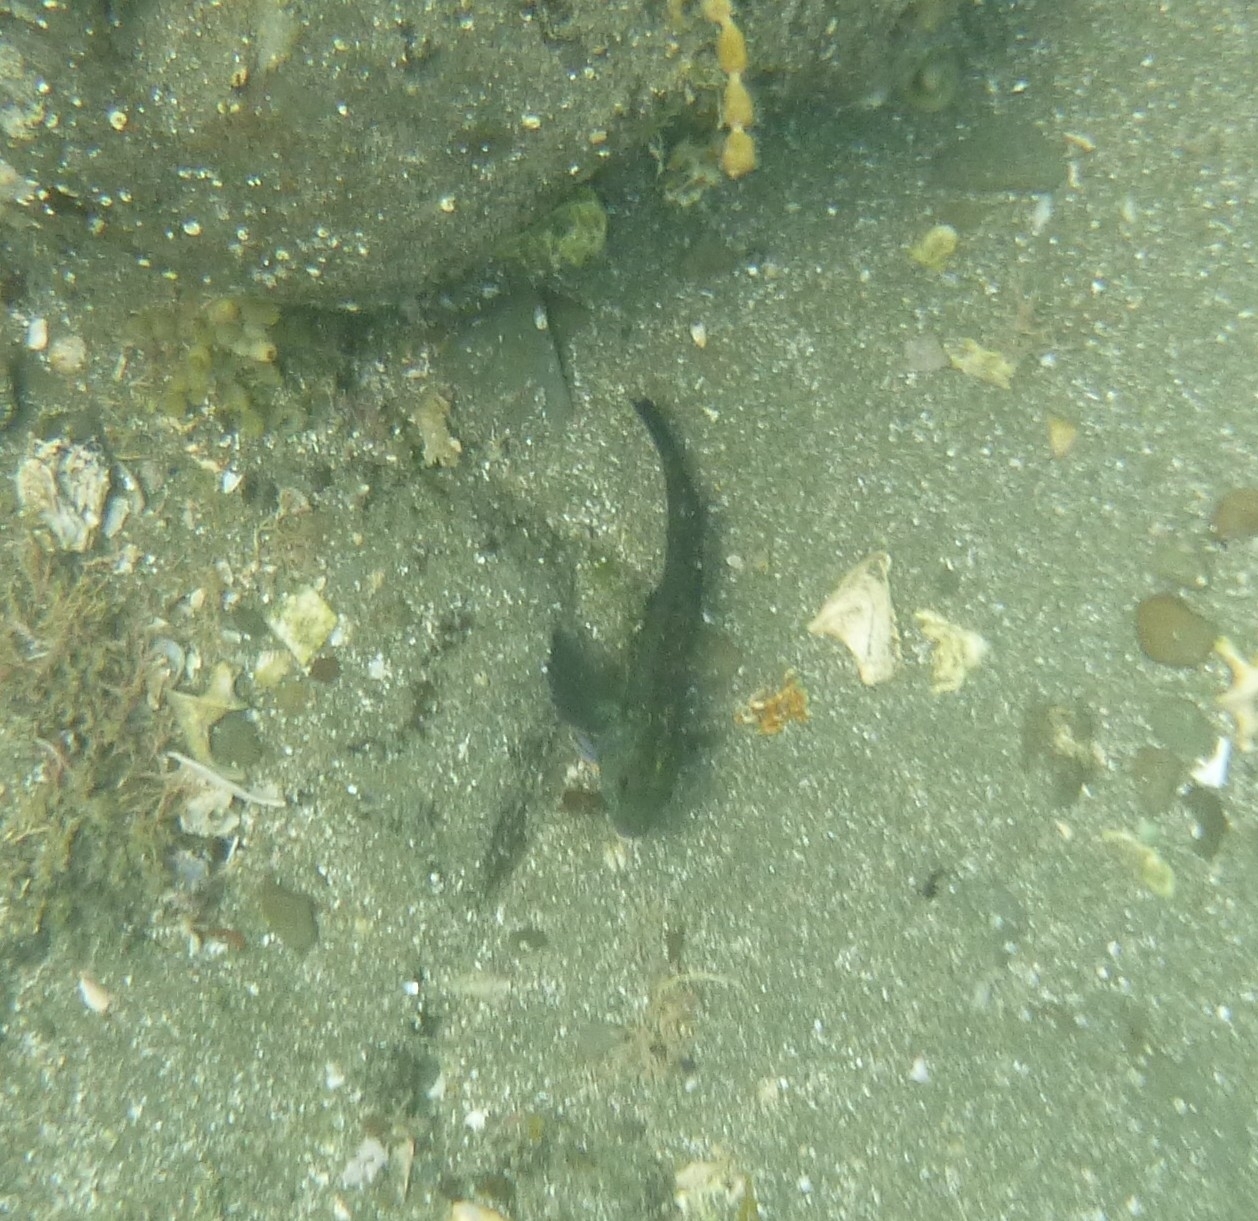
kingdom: Animalia
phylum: Chordata
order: Perciformes
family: Tripterygiidae
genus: Forsterygion
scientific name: Forsterygion lapillum
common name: Common triplefin
